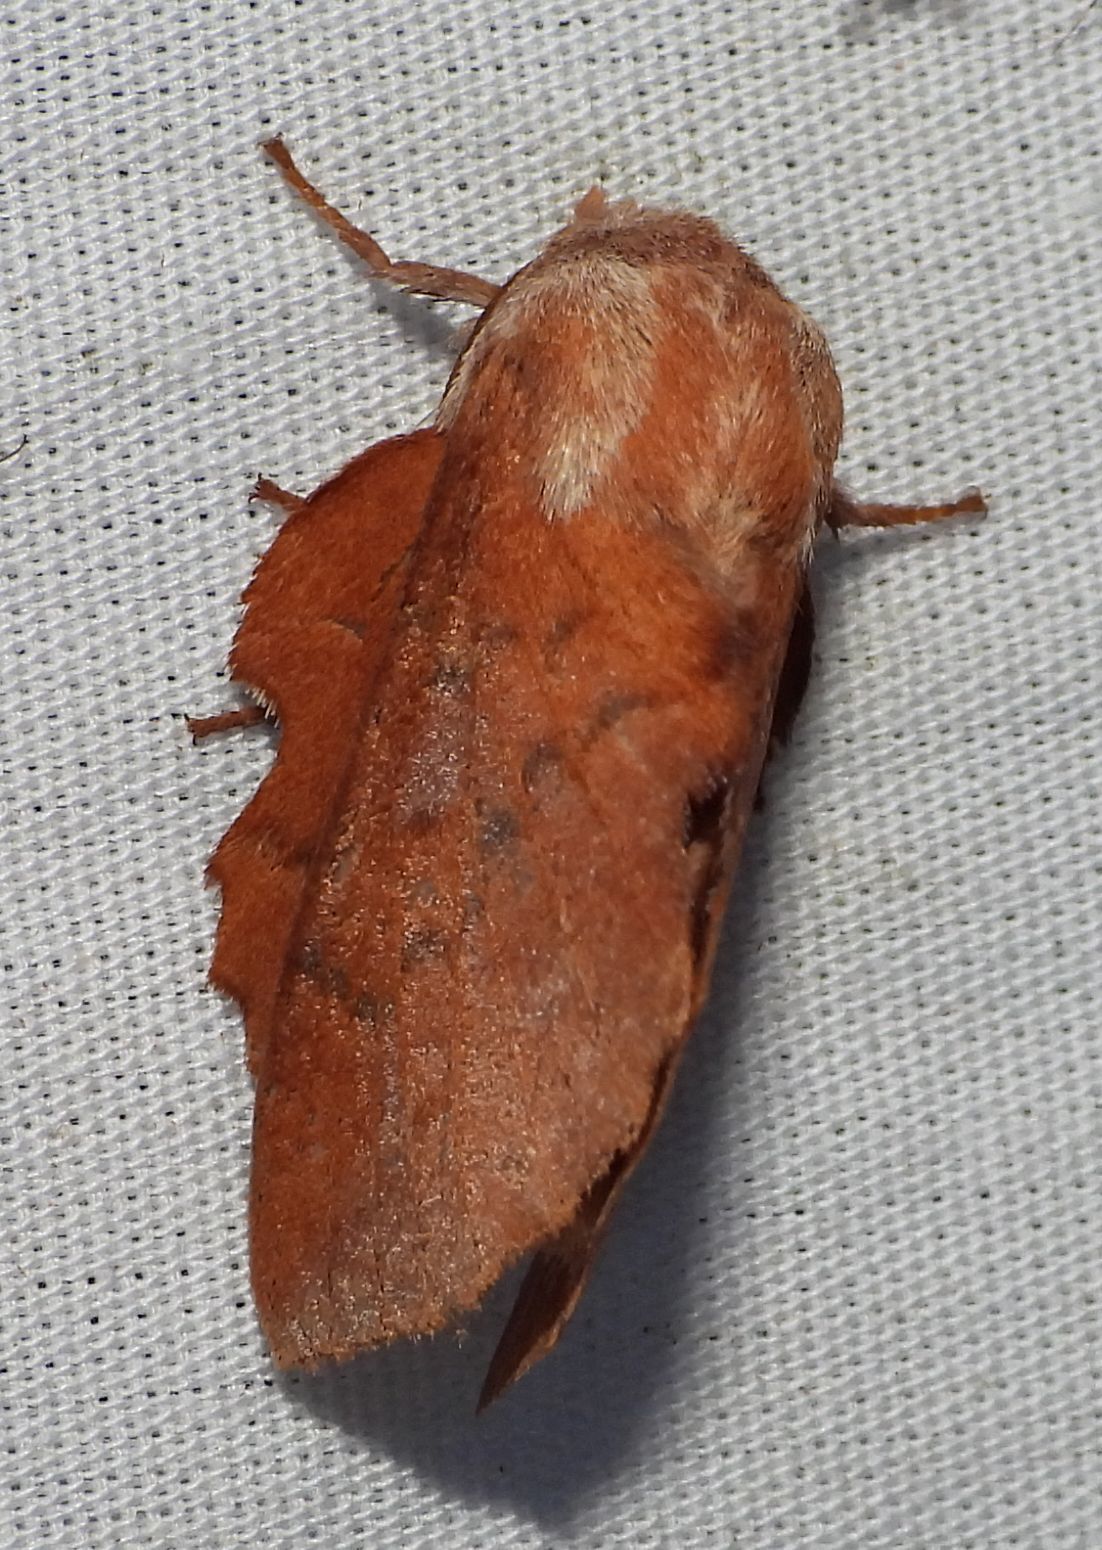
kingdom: Animalia
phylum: Arthropoda
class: Insecta
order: Lepidoptera
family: Lasiocampidae
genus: Phyllodesma
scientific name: Phyllodesma americana
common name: American lappet moth
